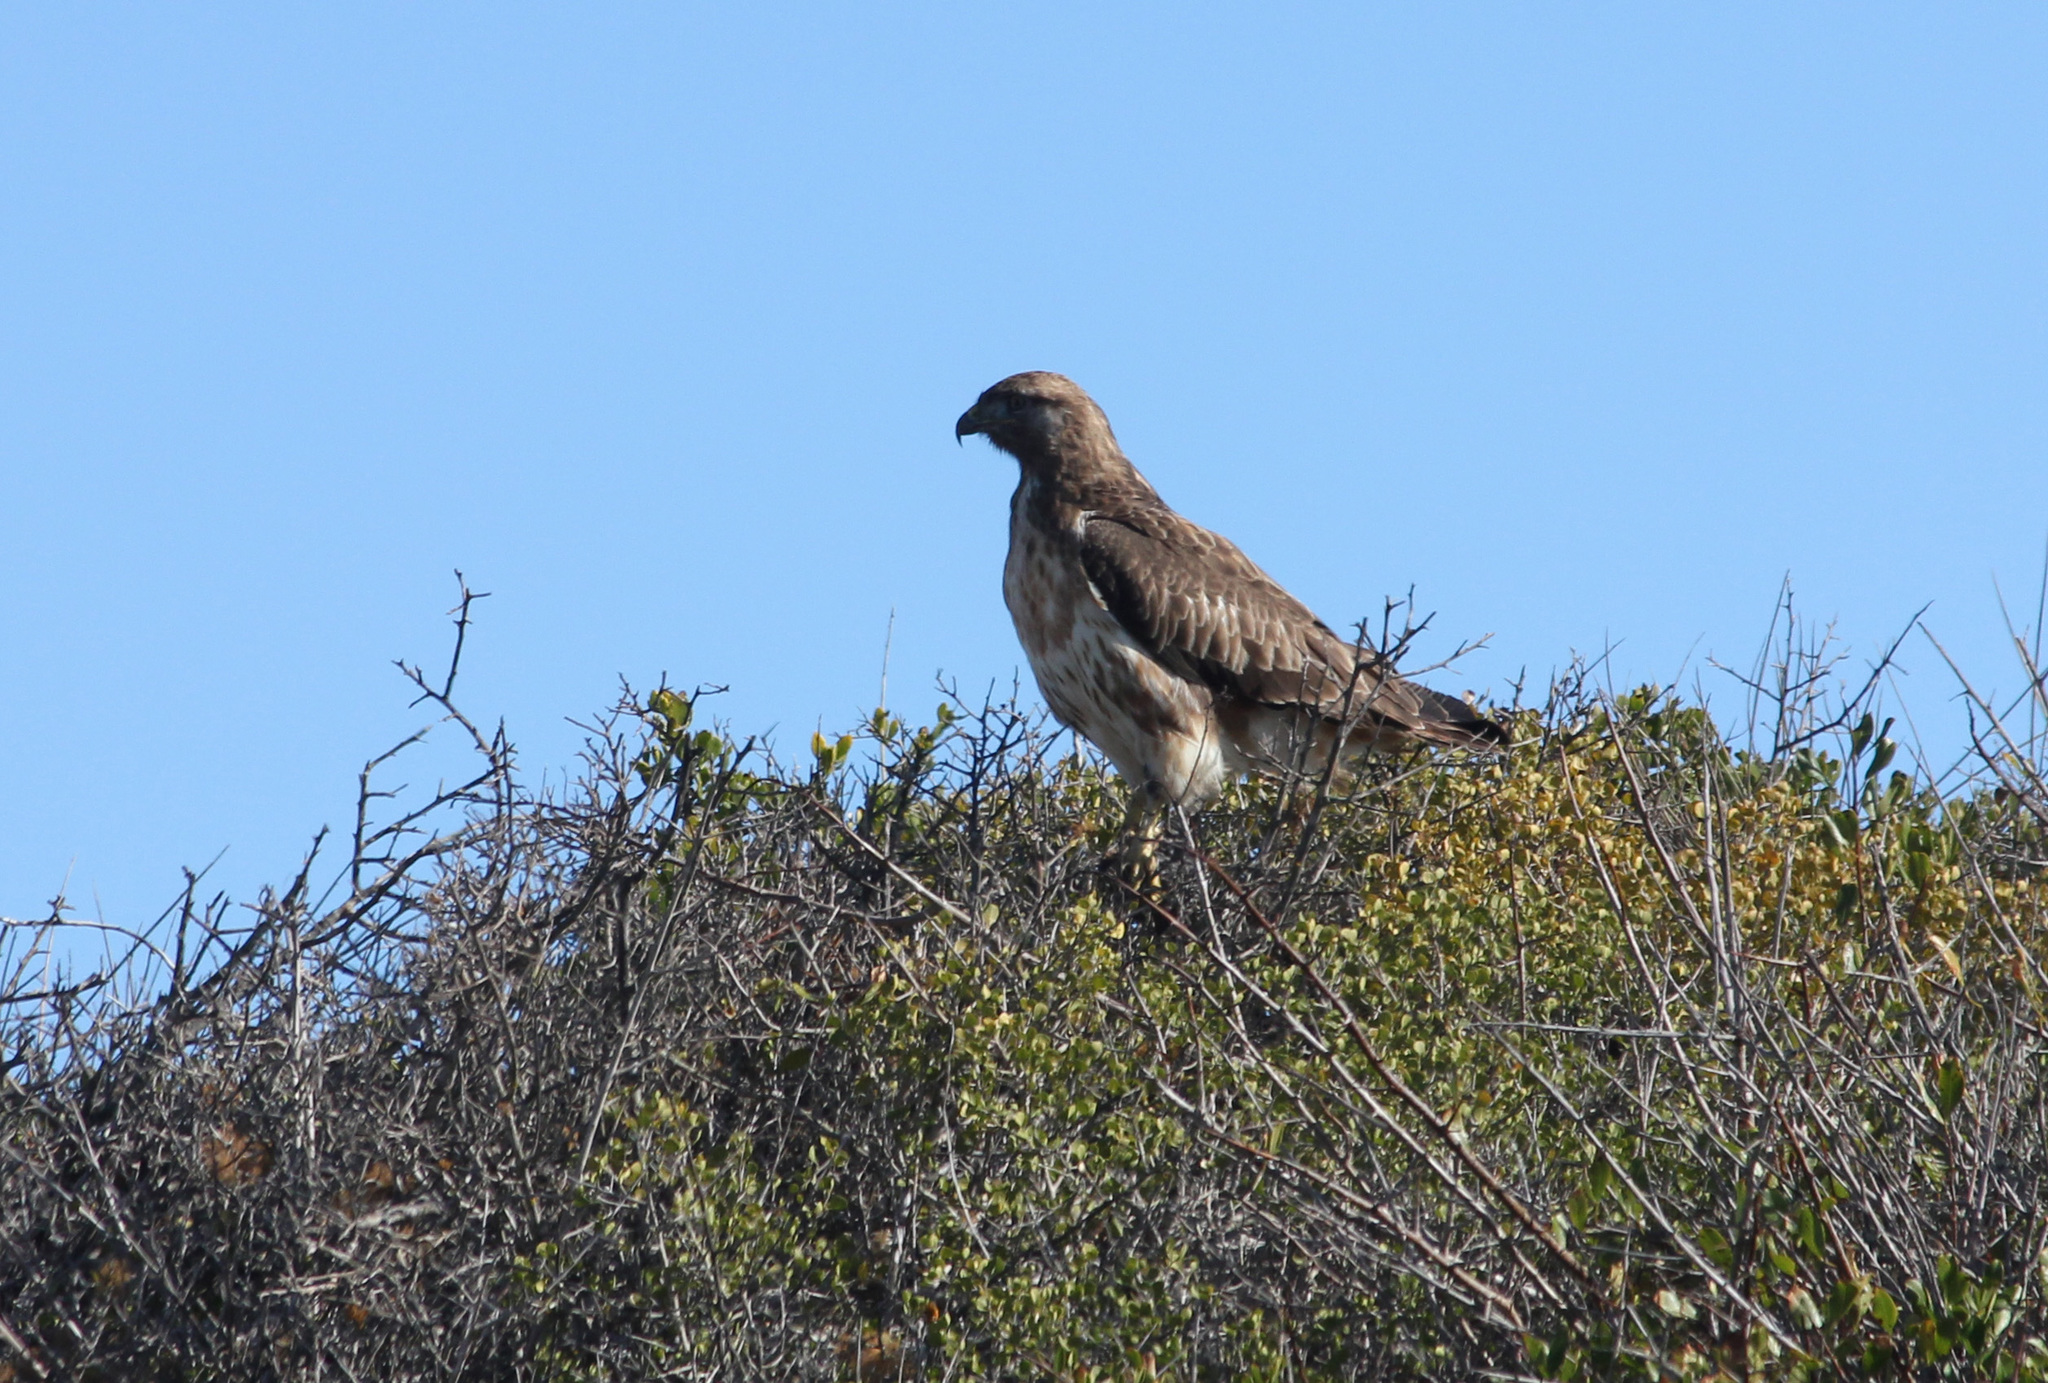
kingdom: Animalia
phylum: Chordata
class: Aves
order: Accipitriformes
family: Accipitridae
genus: Buteo
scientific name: Buteo buteo
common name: Common buzzard
